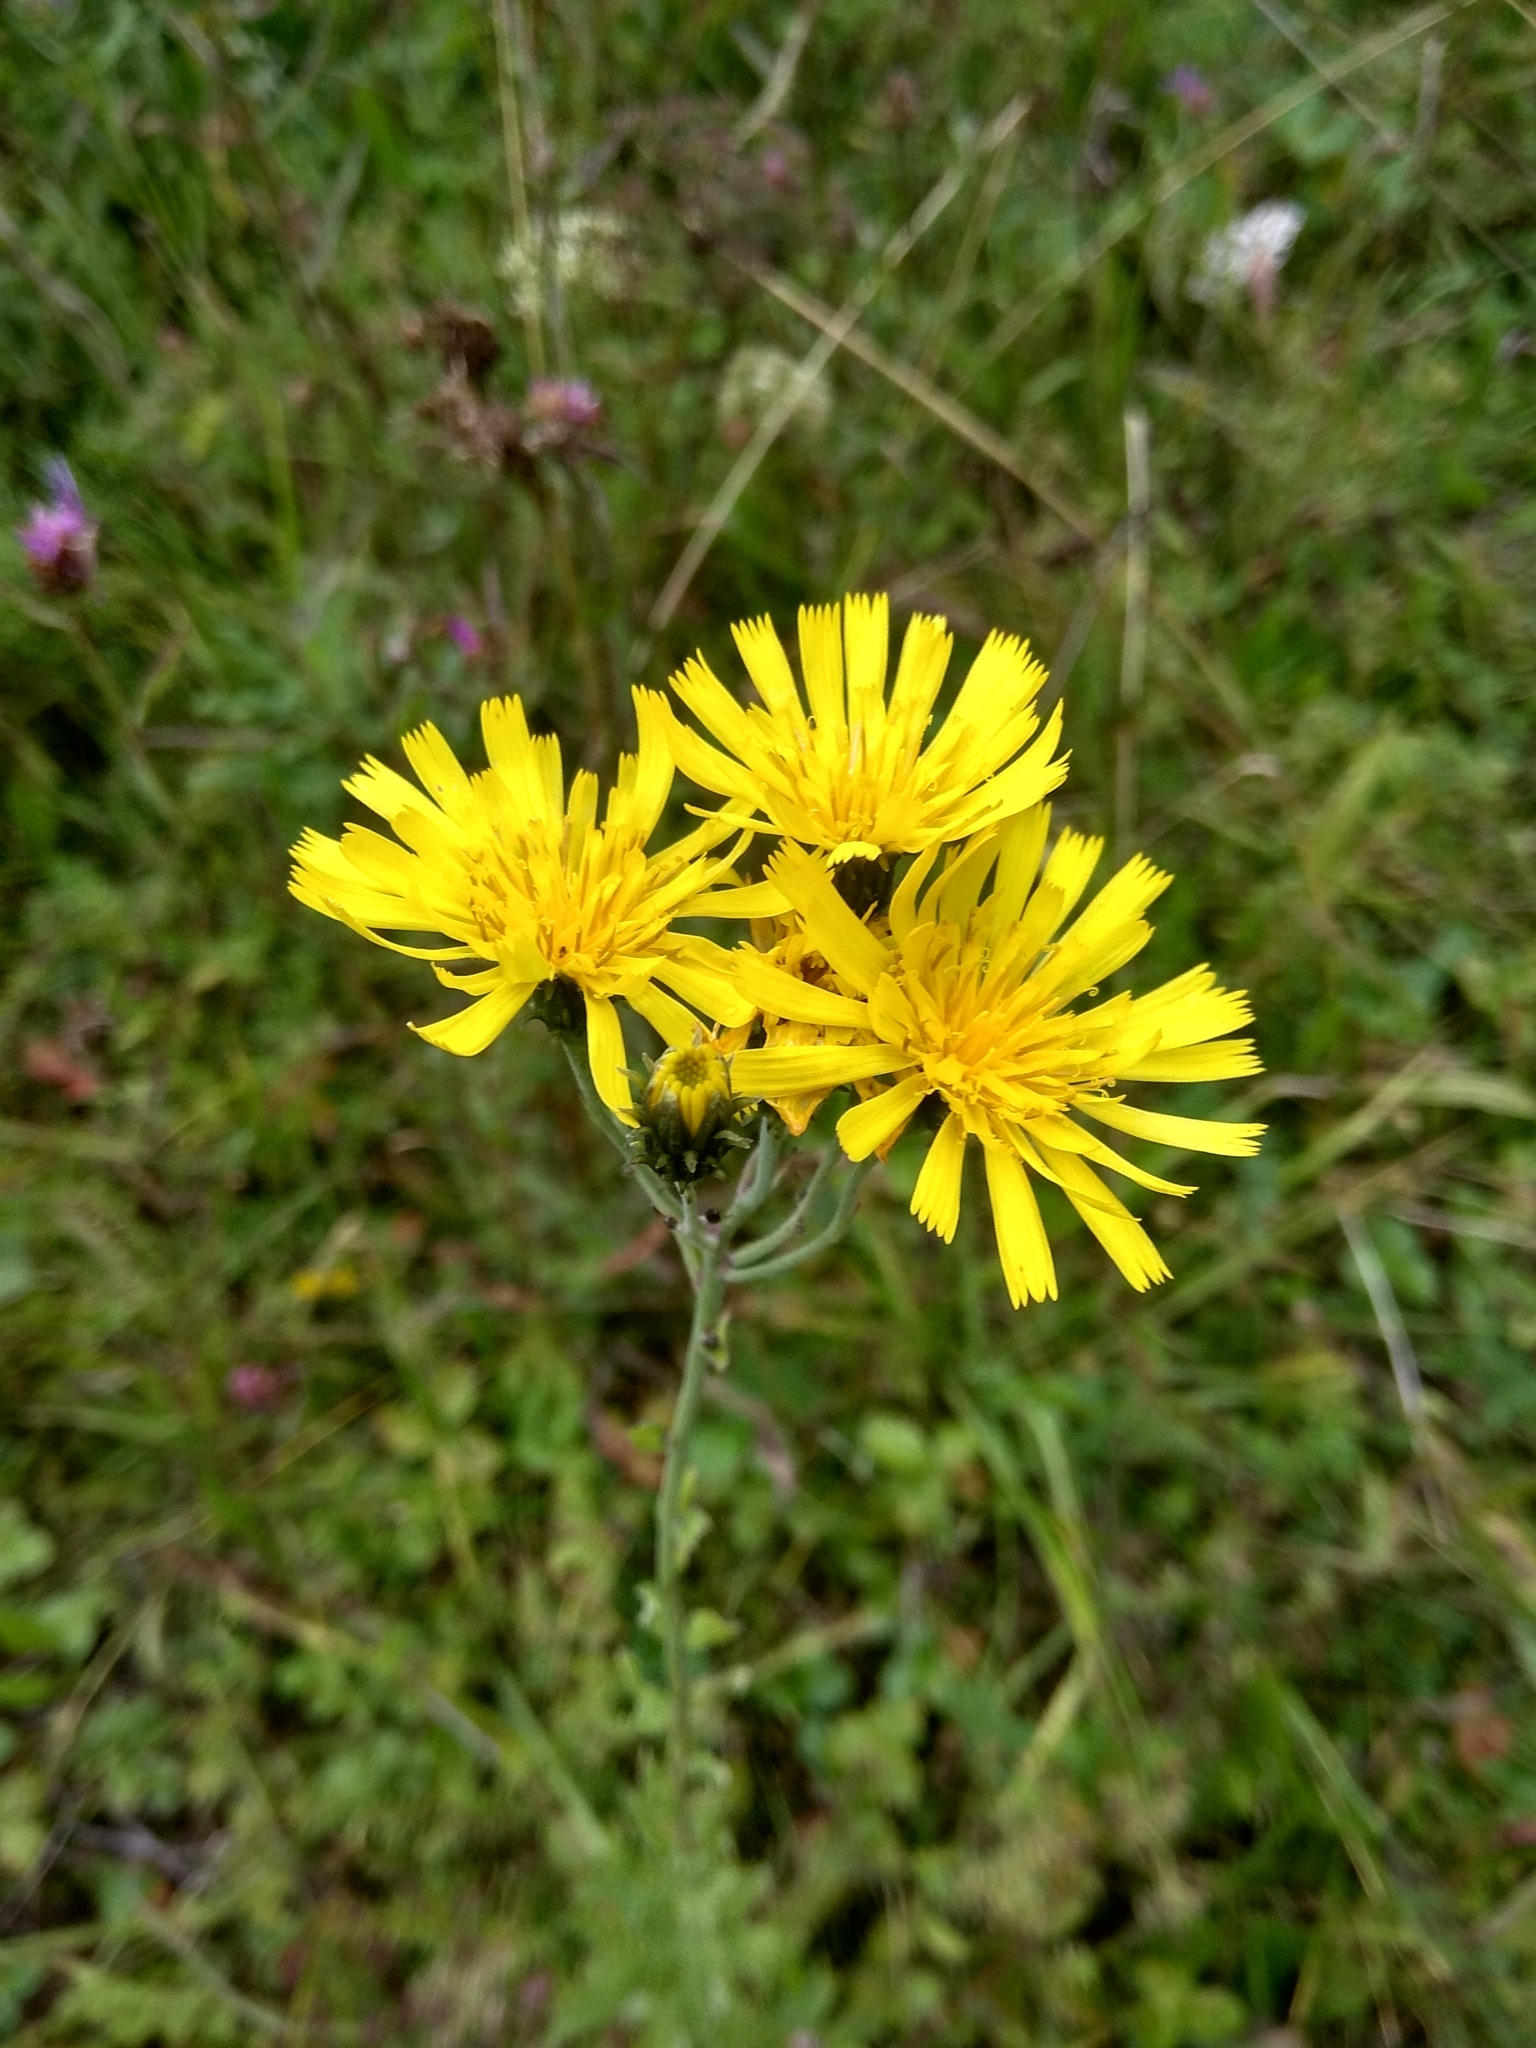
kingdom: Plantae
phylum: Tracheophyta
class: Magnoliopsida
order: Asterales
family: Asteraceae
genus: Hieracium
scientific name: Hieracium umbellatum
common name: Northern hawkweed
